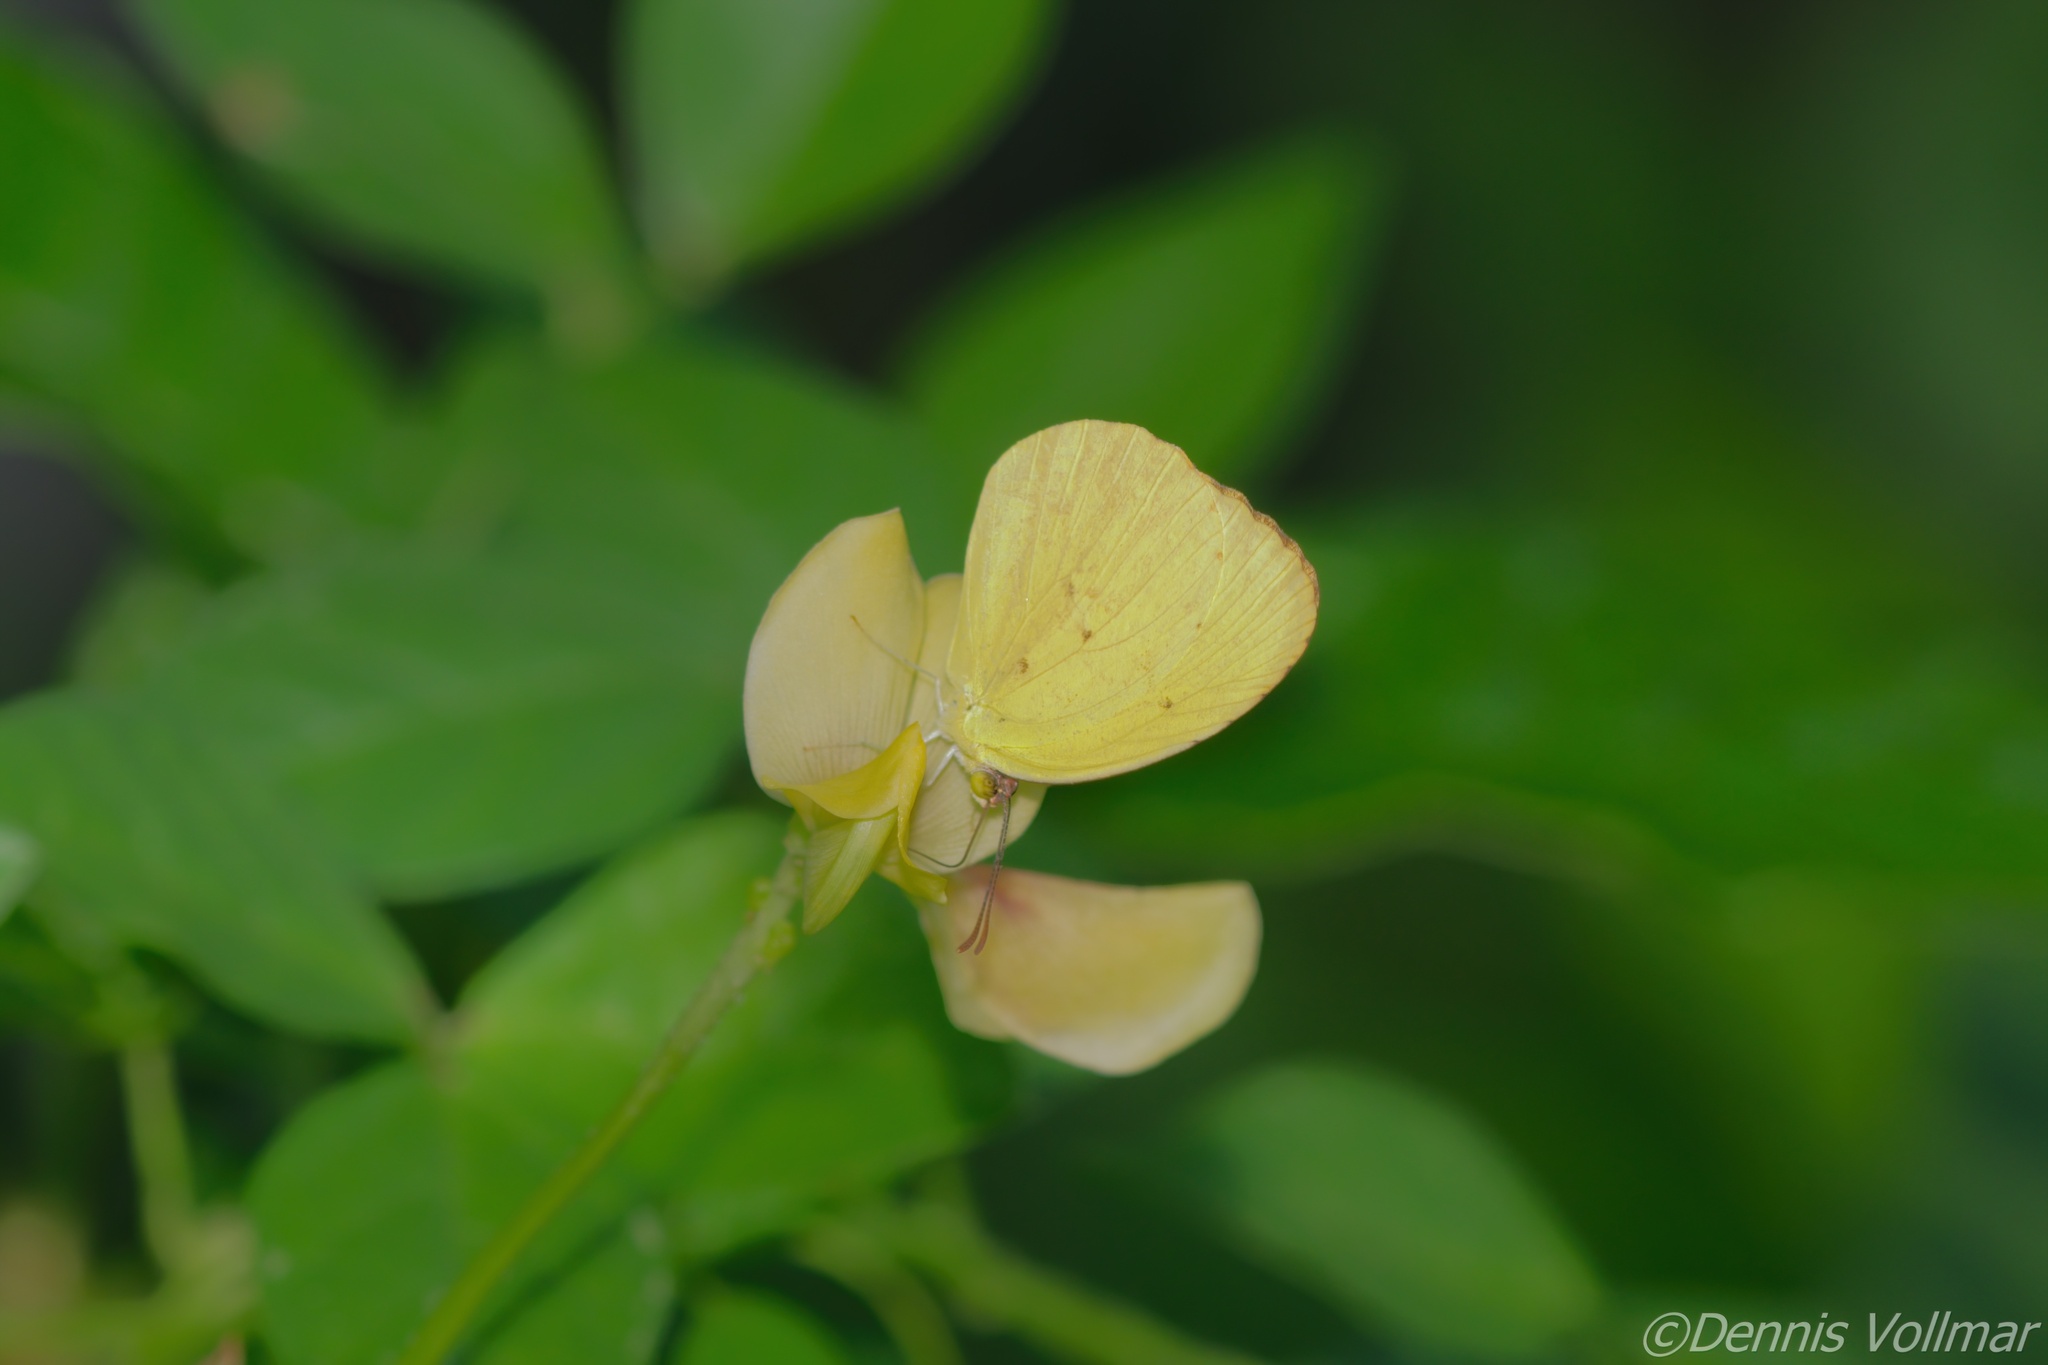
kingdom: Animalia
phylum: Arthropoda
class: Insecta
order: Lepidoptera
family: Pieridae
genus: Pyrisitia
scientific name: Pyrisitia dina
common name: Dina yellow
